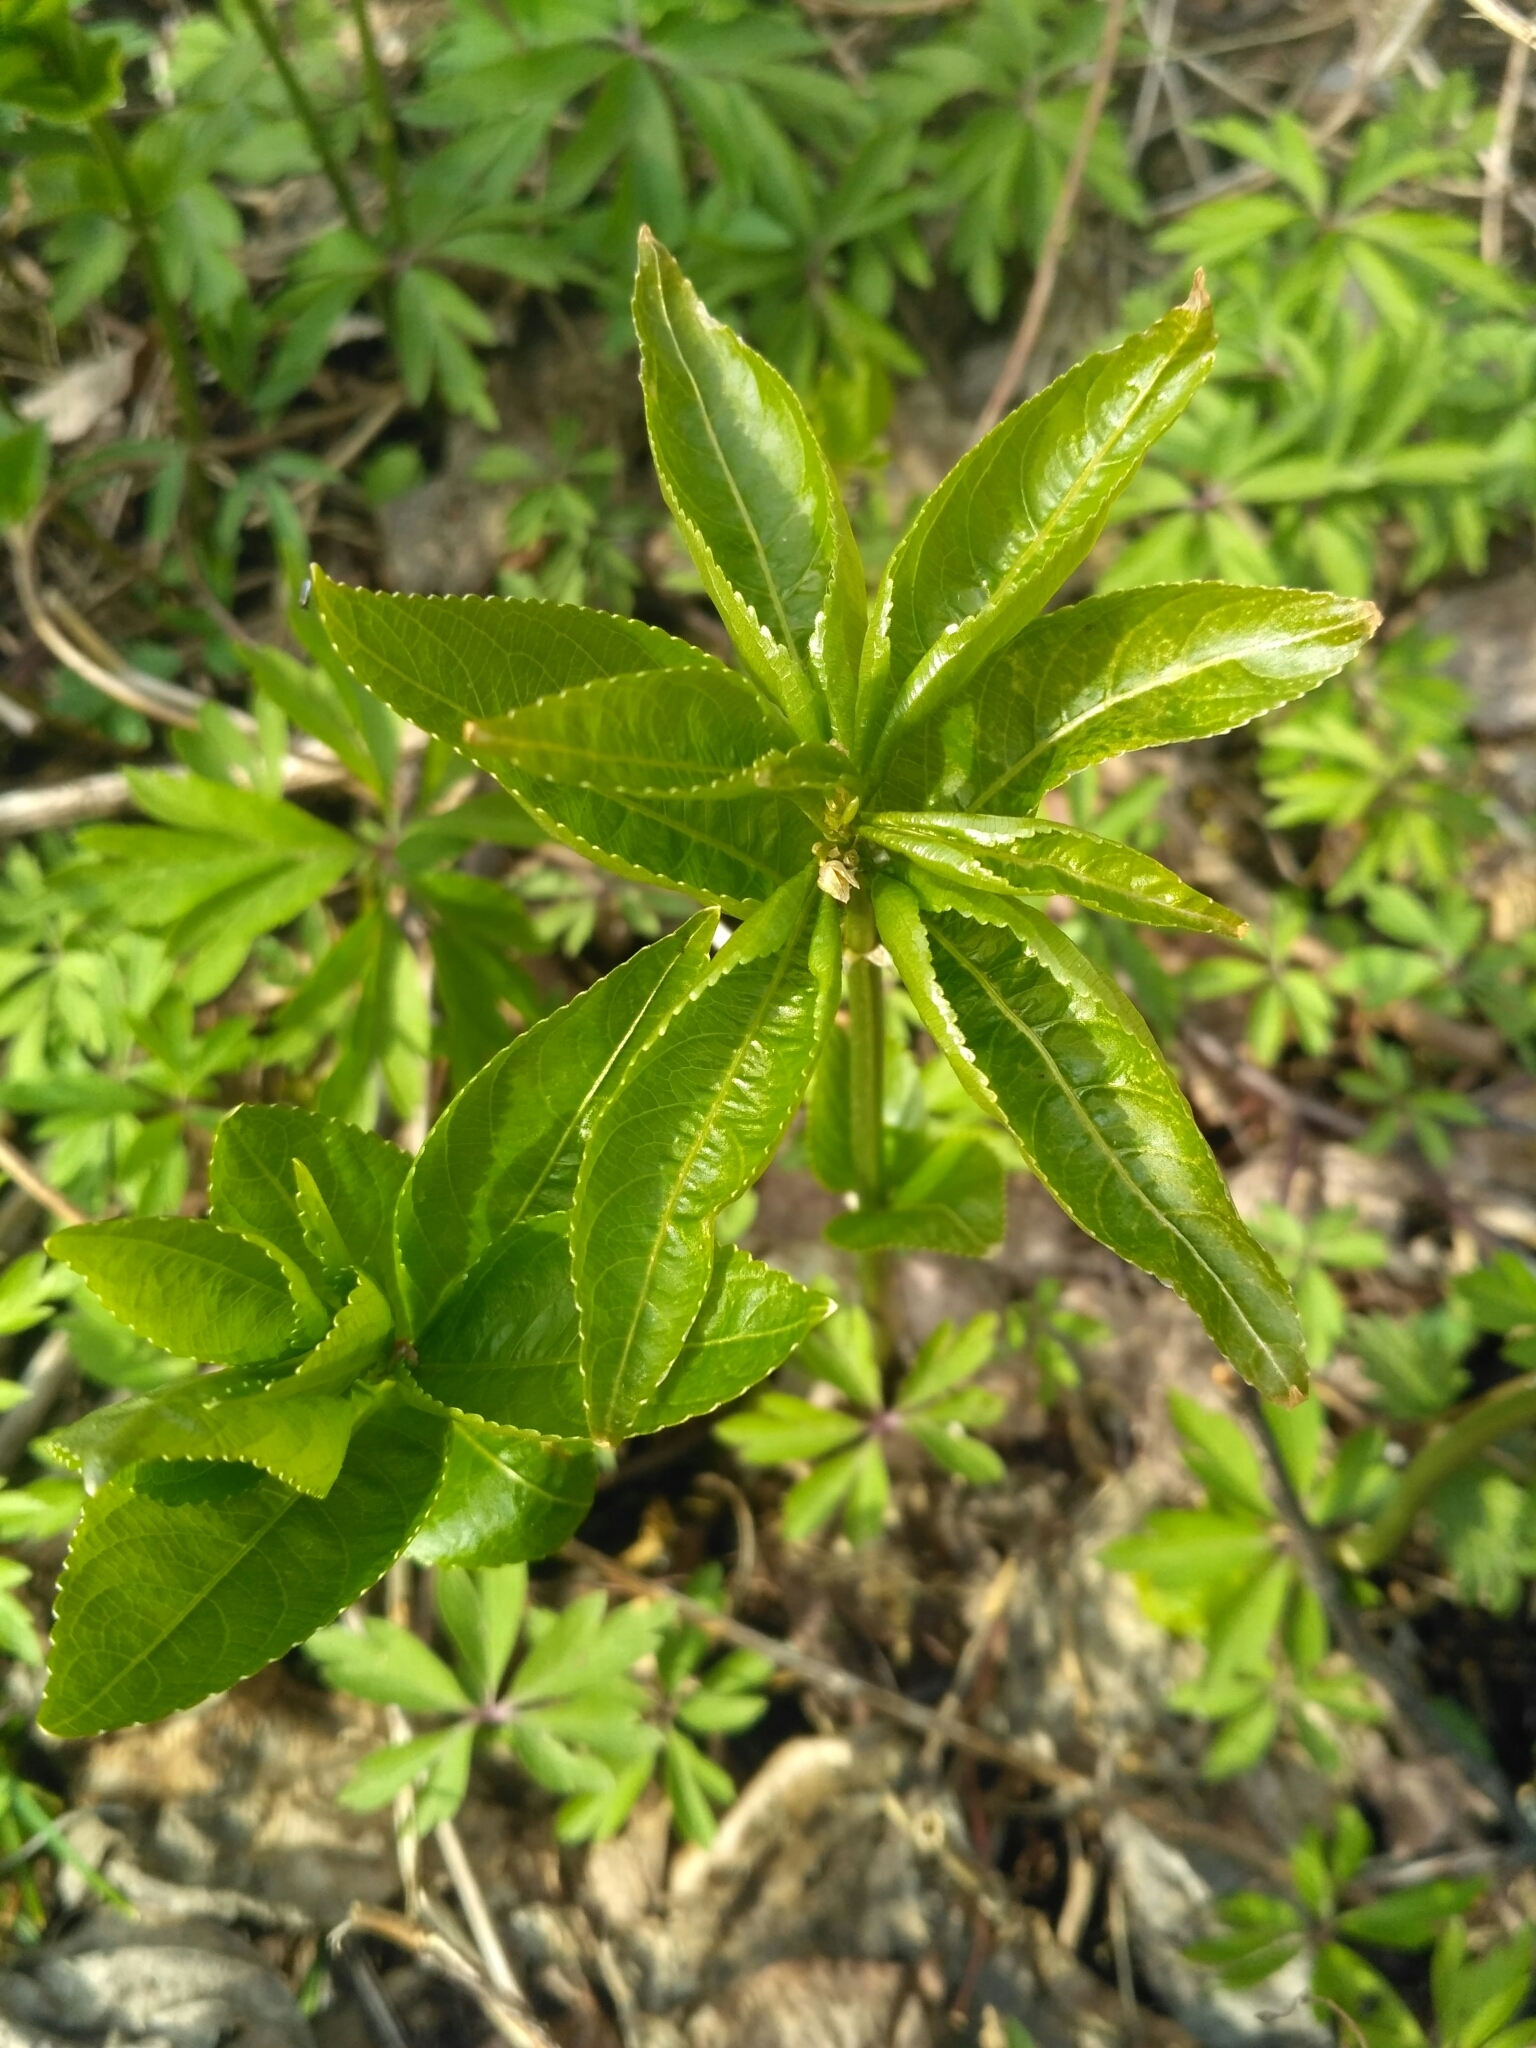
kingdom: Plantae
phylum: Tracheophyta
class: Magnoliopsida
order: Malpighiales
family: Euphorbiaceae
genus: Mercurialis
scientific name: Mercurialis perennis
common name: Dog mercury
